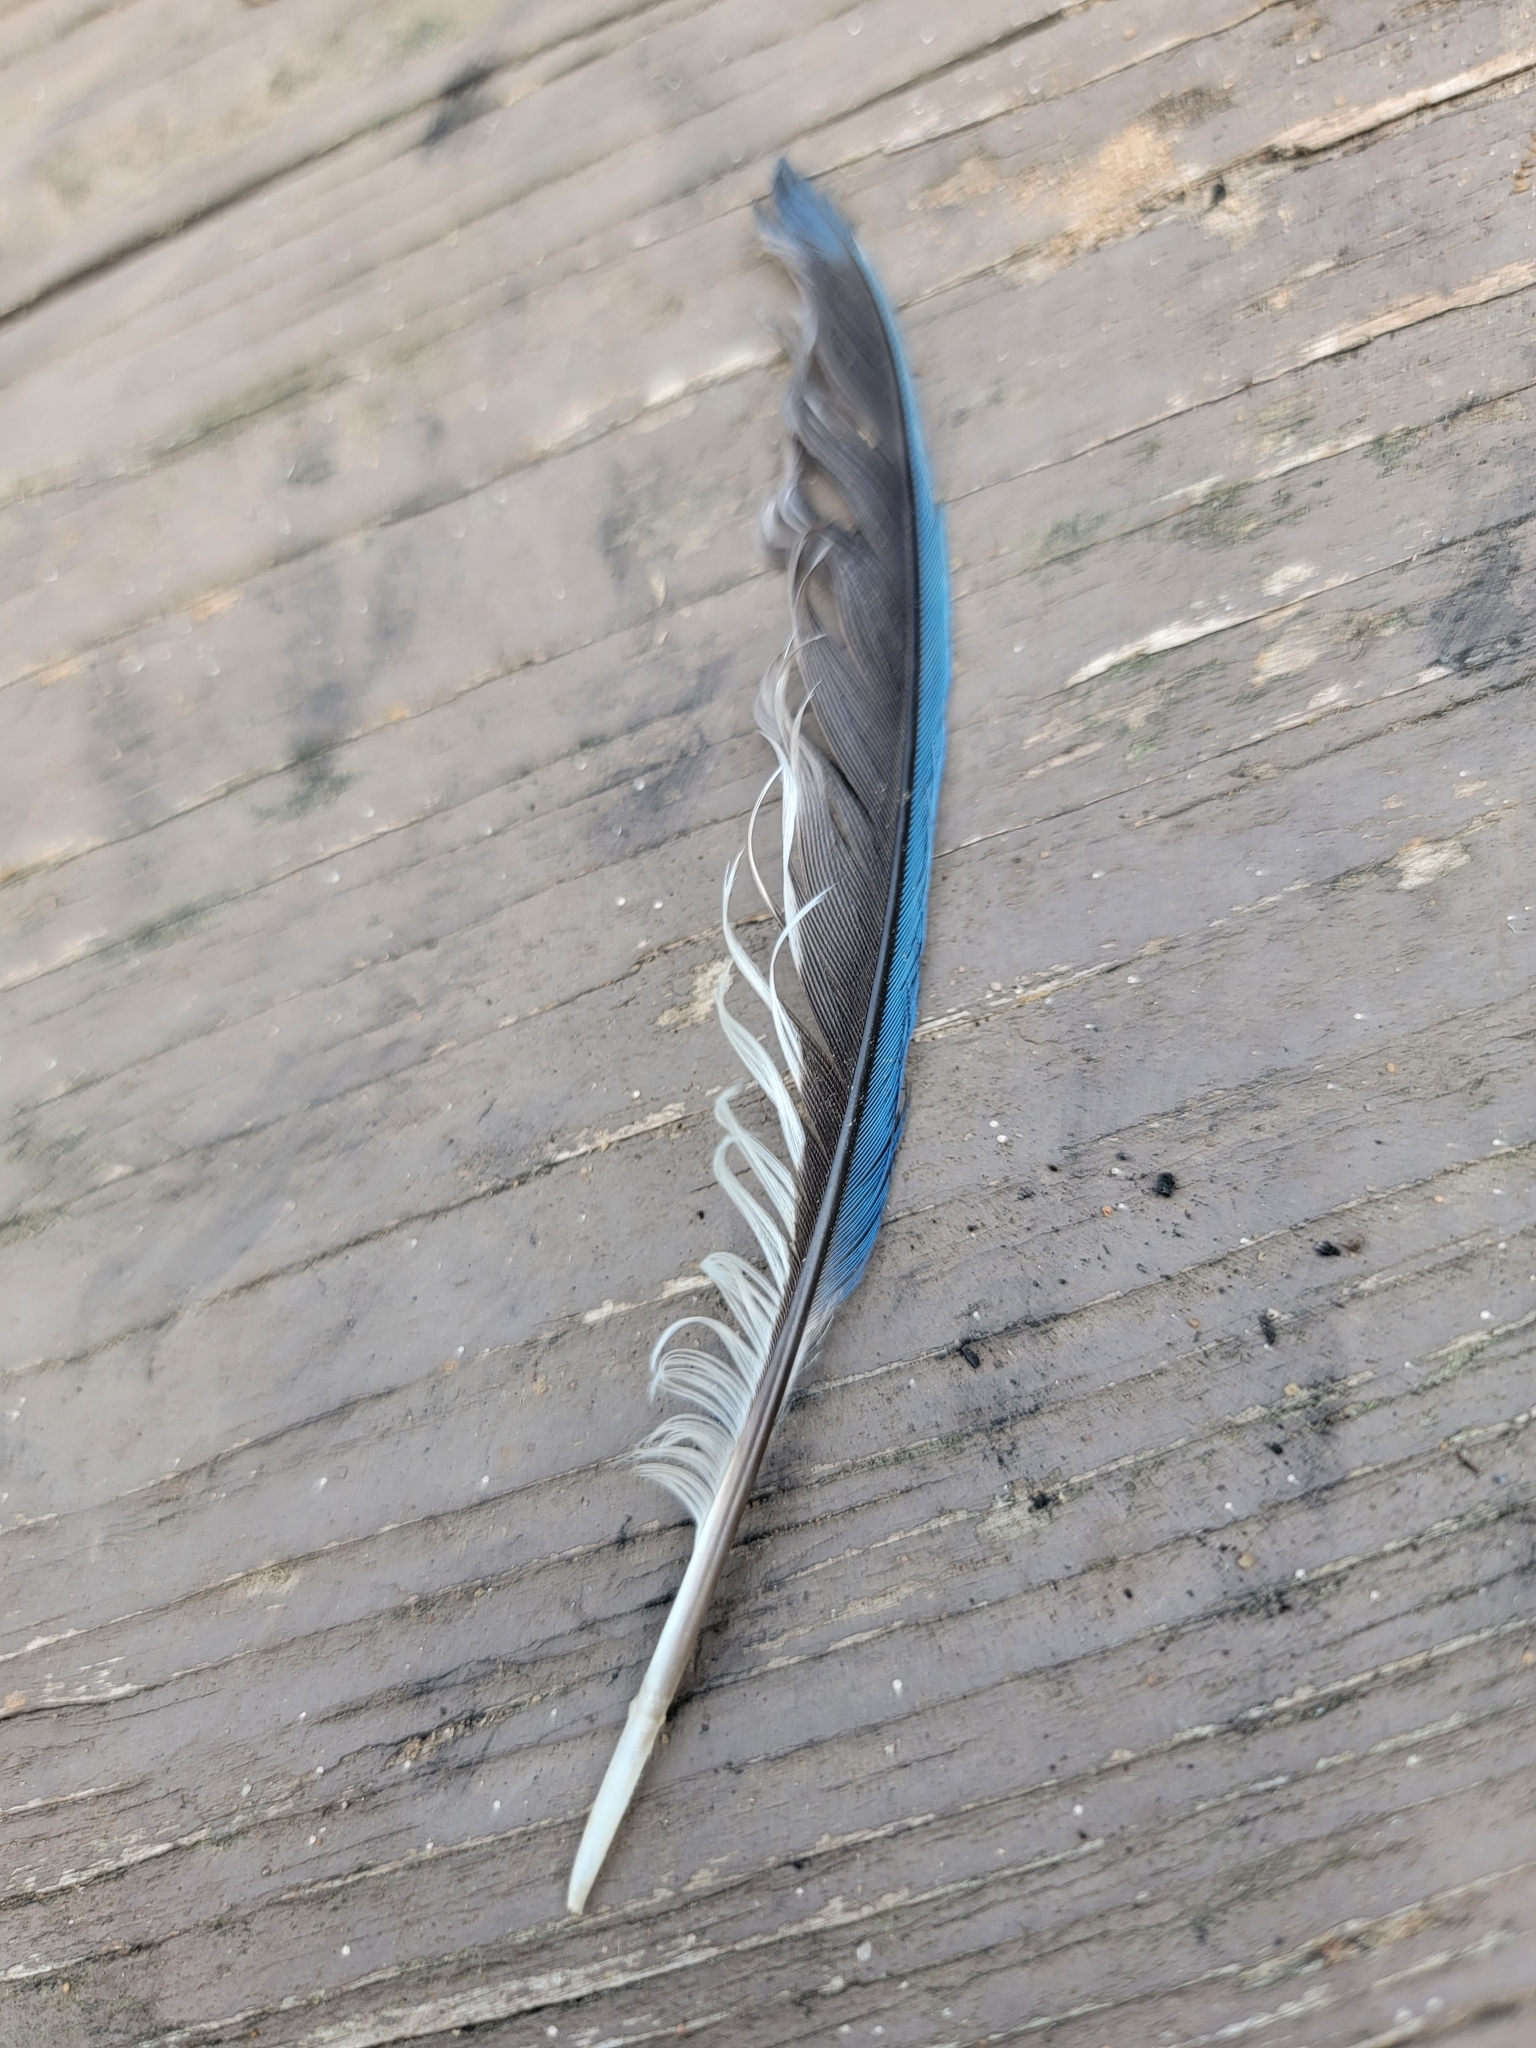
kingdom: Animalia
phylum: Chordata
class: Aves
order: Passeriformes
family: Corvidae
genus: Cyanocitta
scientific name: Cyanocitta cristata
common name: Blue jay
